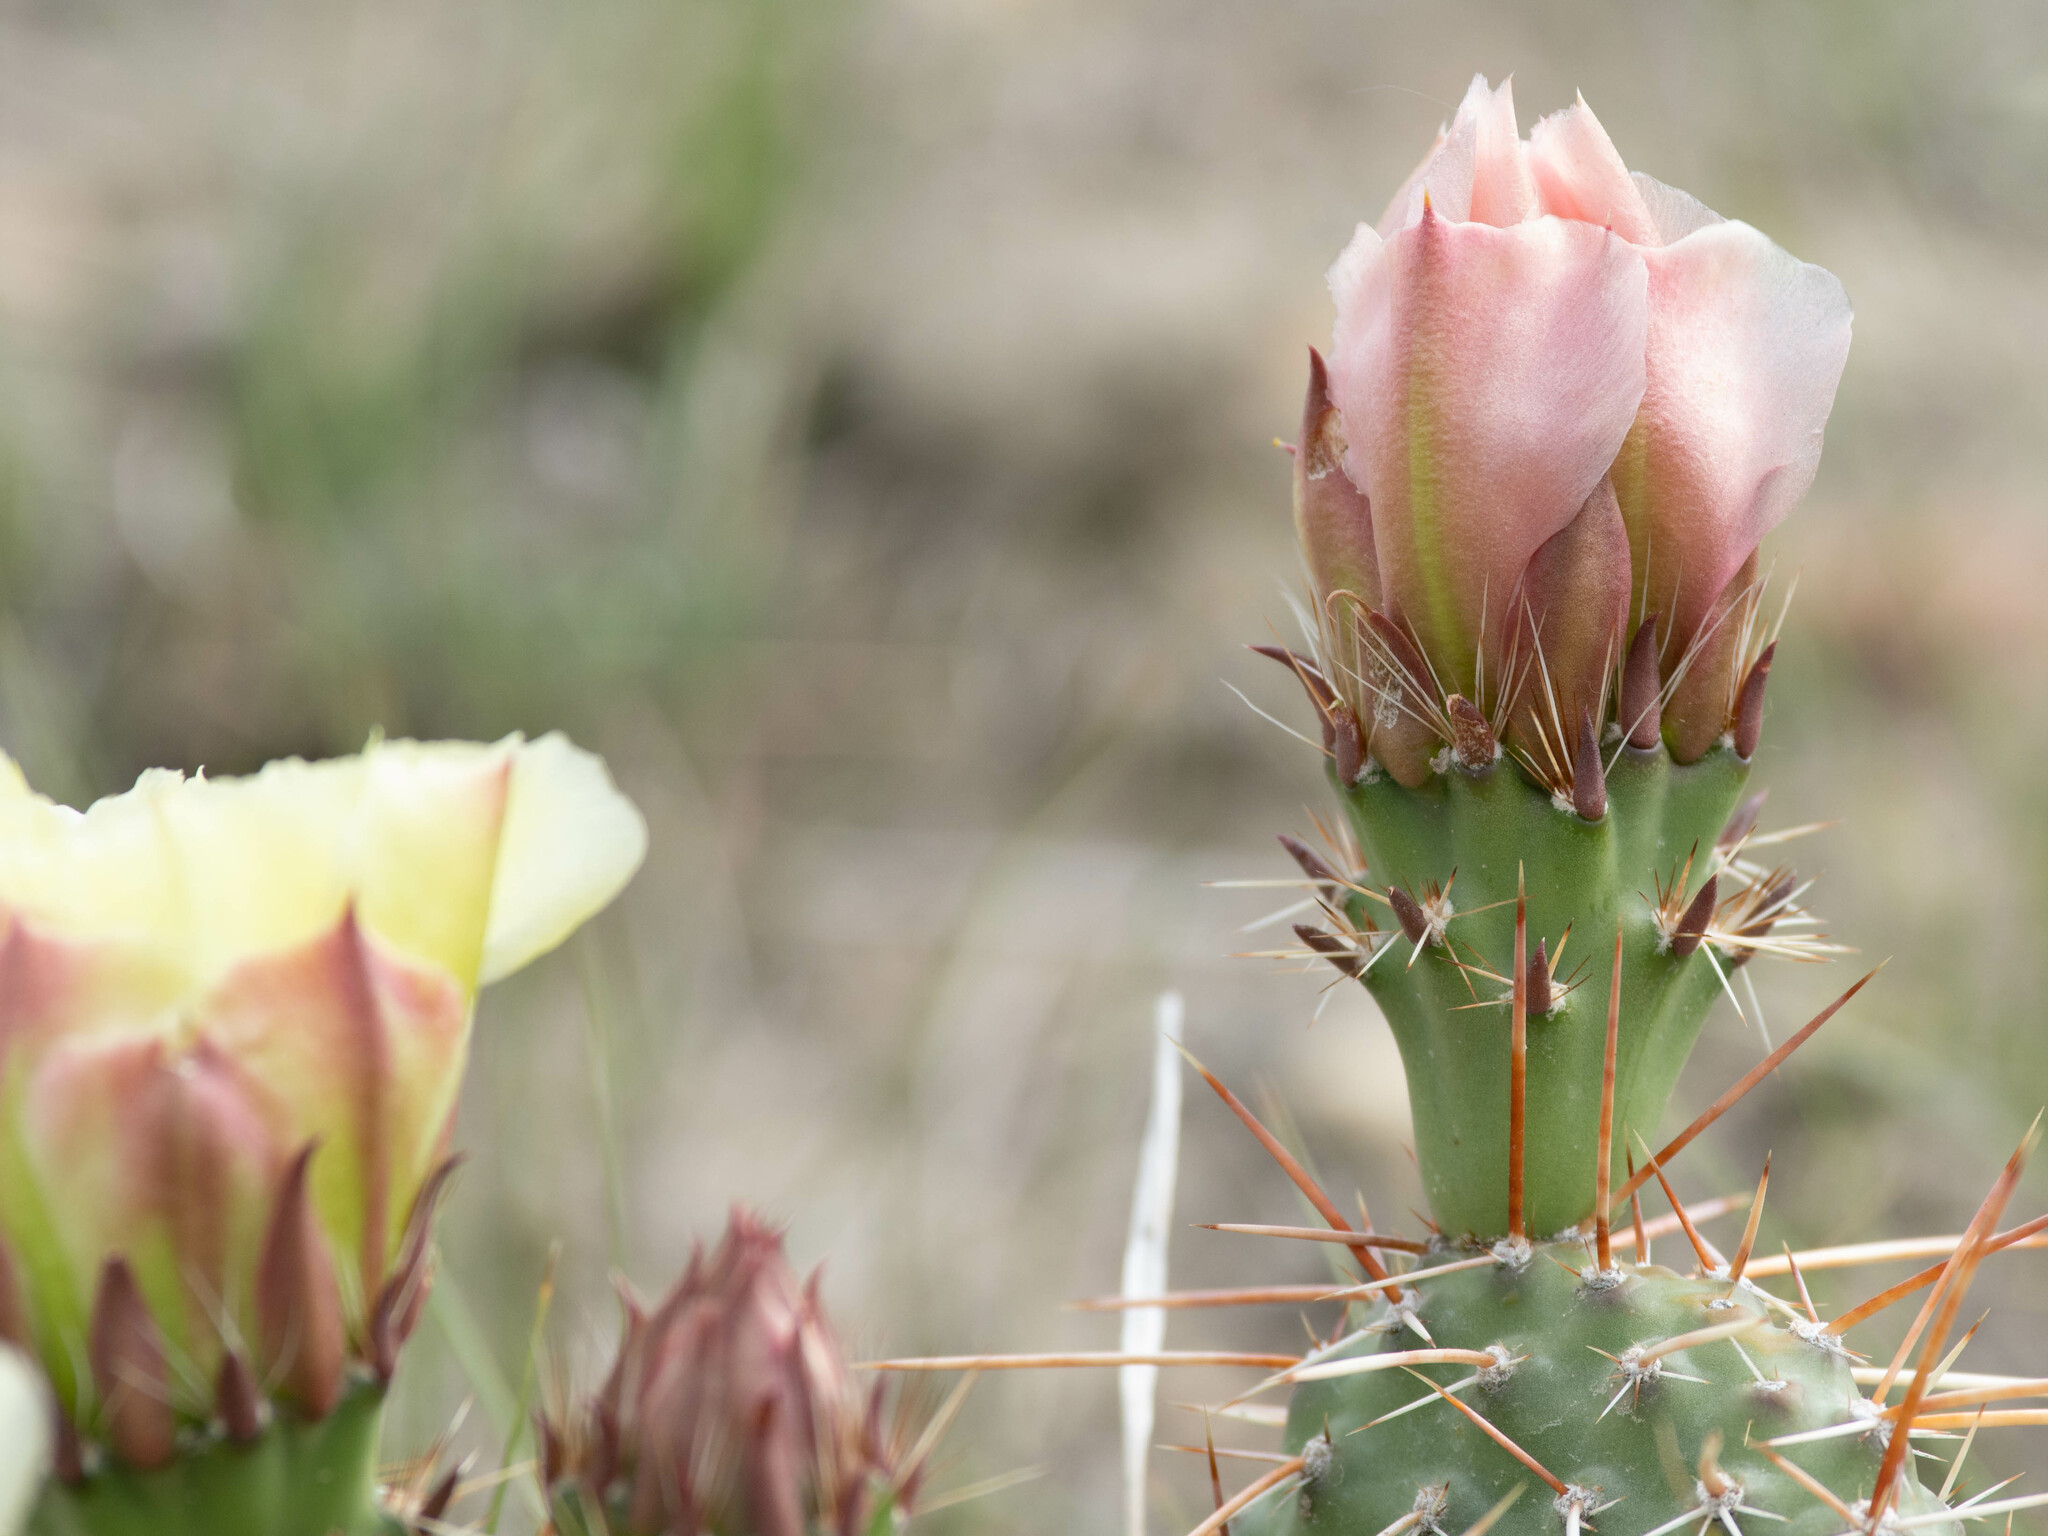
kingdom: Plantae
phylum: Tracheophyta
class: Magnoliopsida
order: Caryophyllales
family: Cactaceae
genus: Opuntia
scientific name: Opuntia polyacantha
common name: Plains prickly-pear
